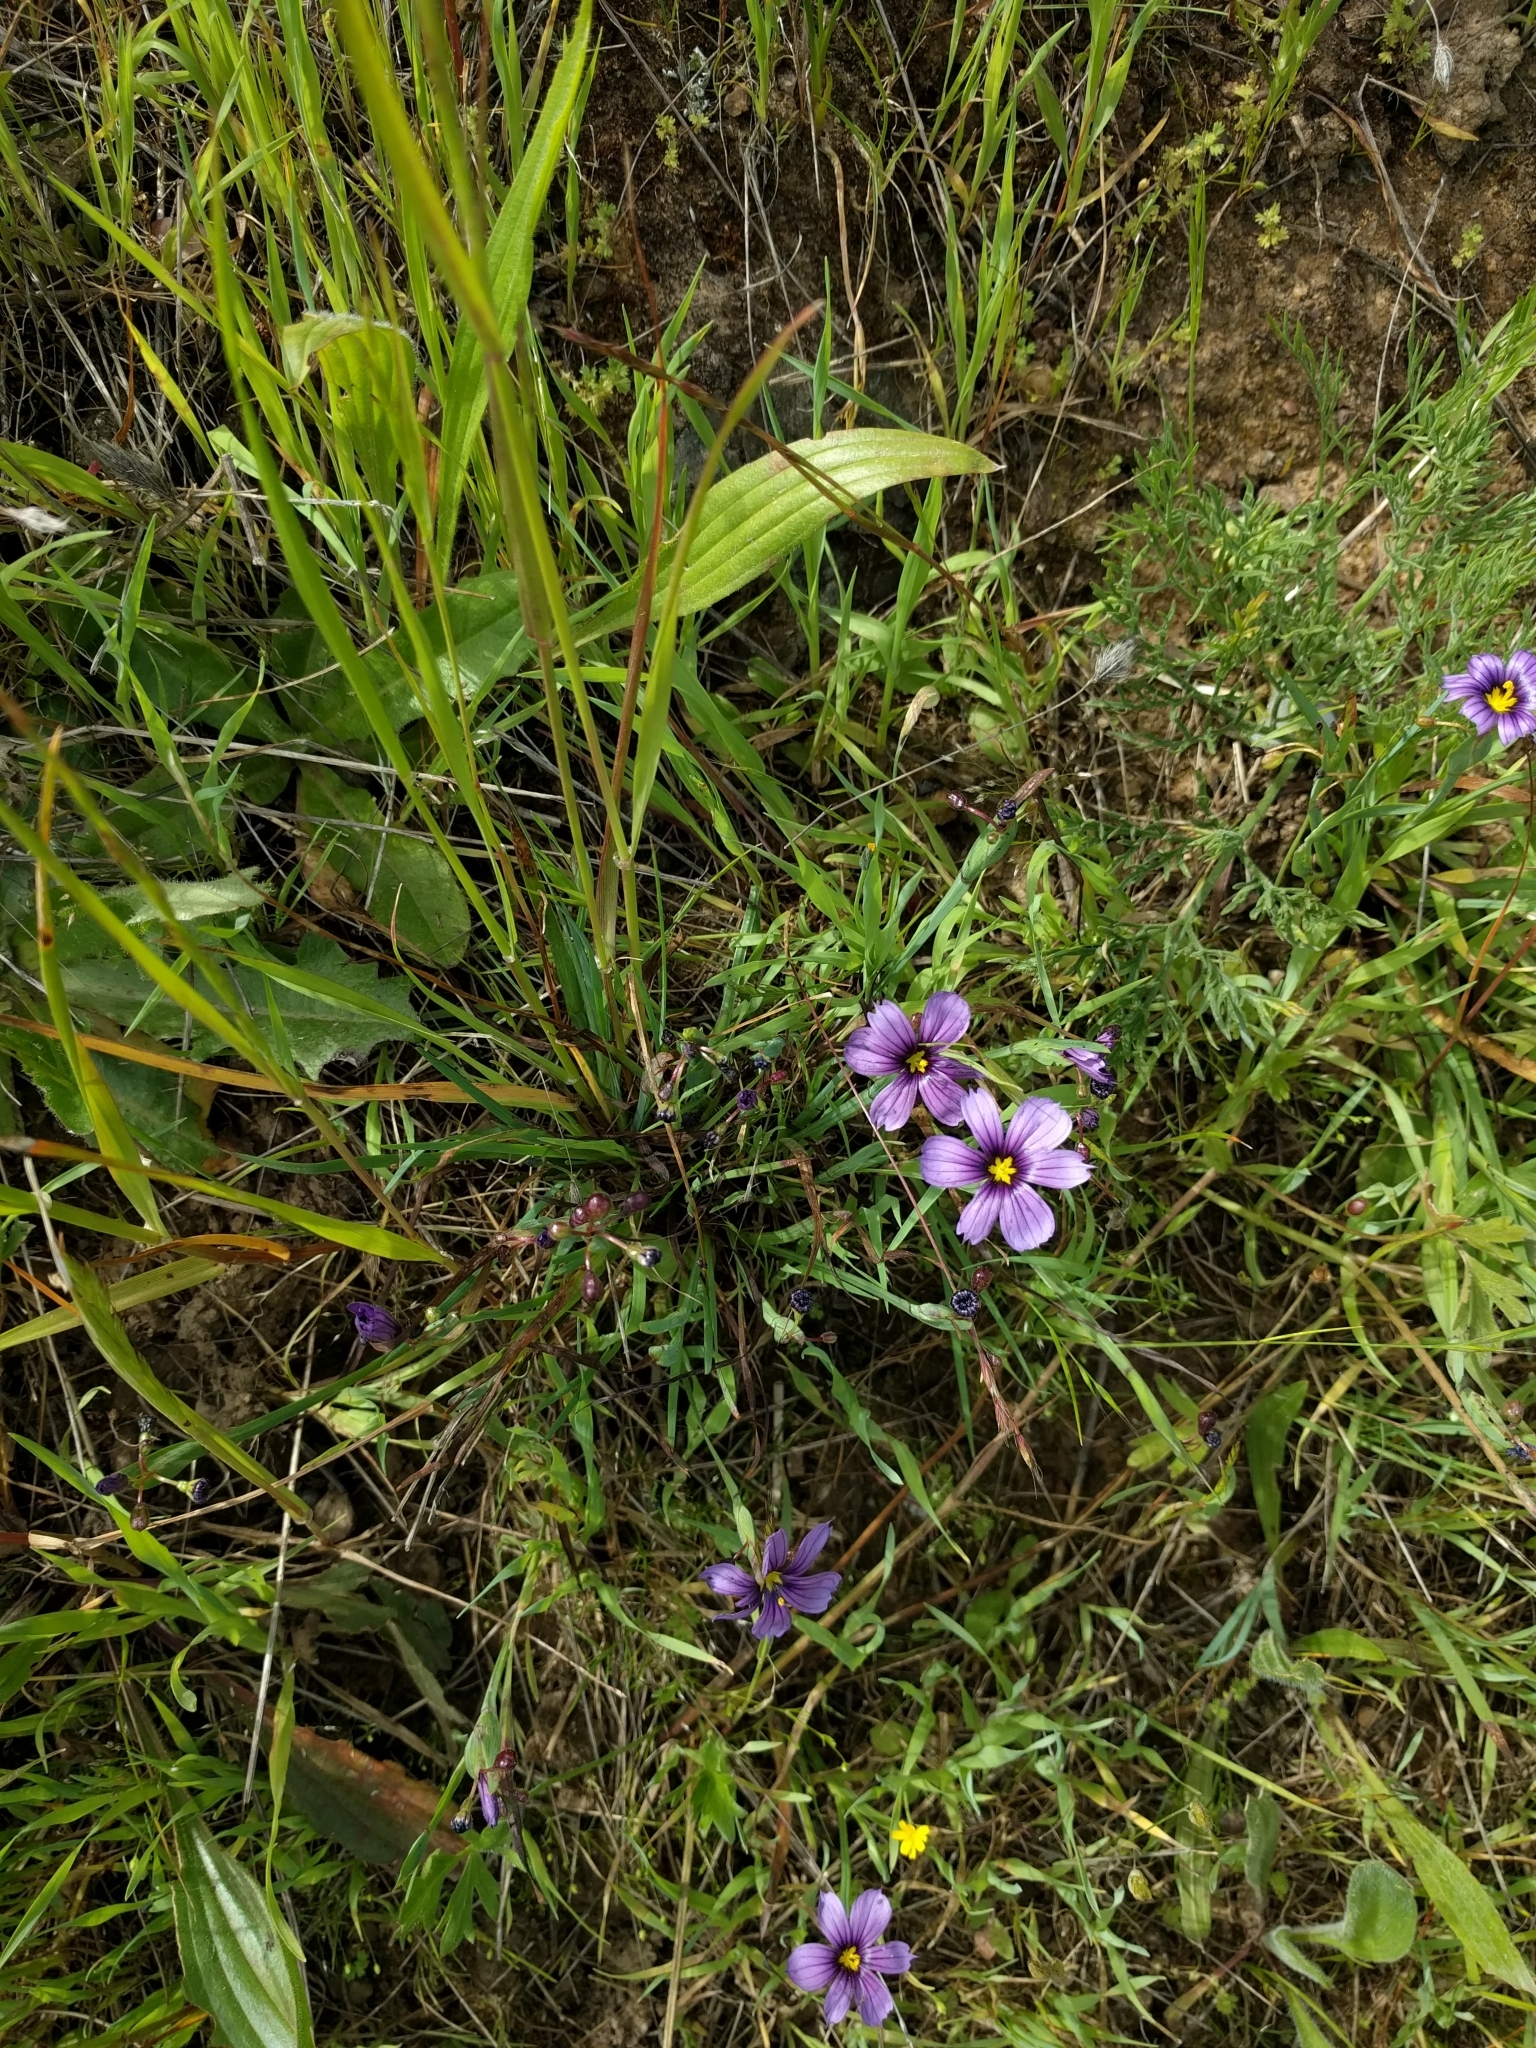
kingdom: Plantae
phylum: Tracheophyta
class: Liliopsida
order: Asparagales
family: Iridaceae
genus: Sisyrinchium
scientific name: Sisyrinchium bellum
